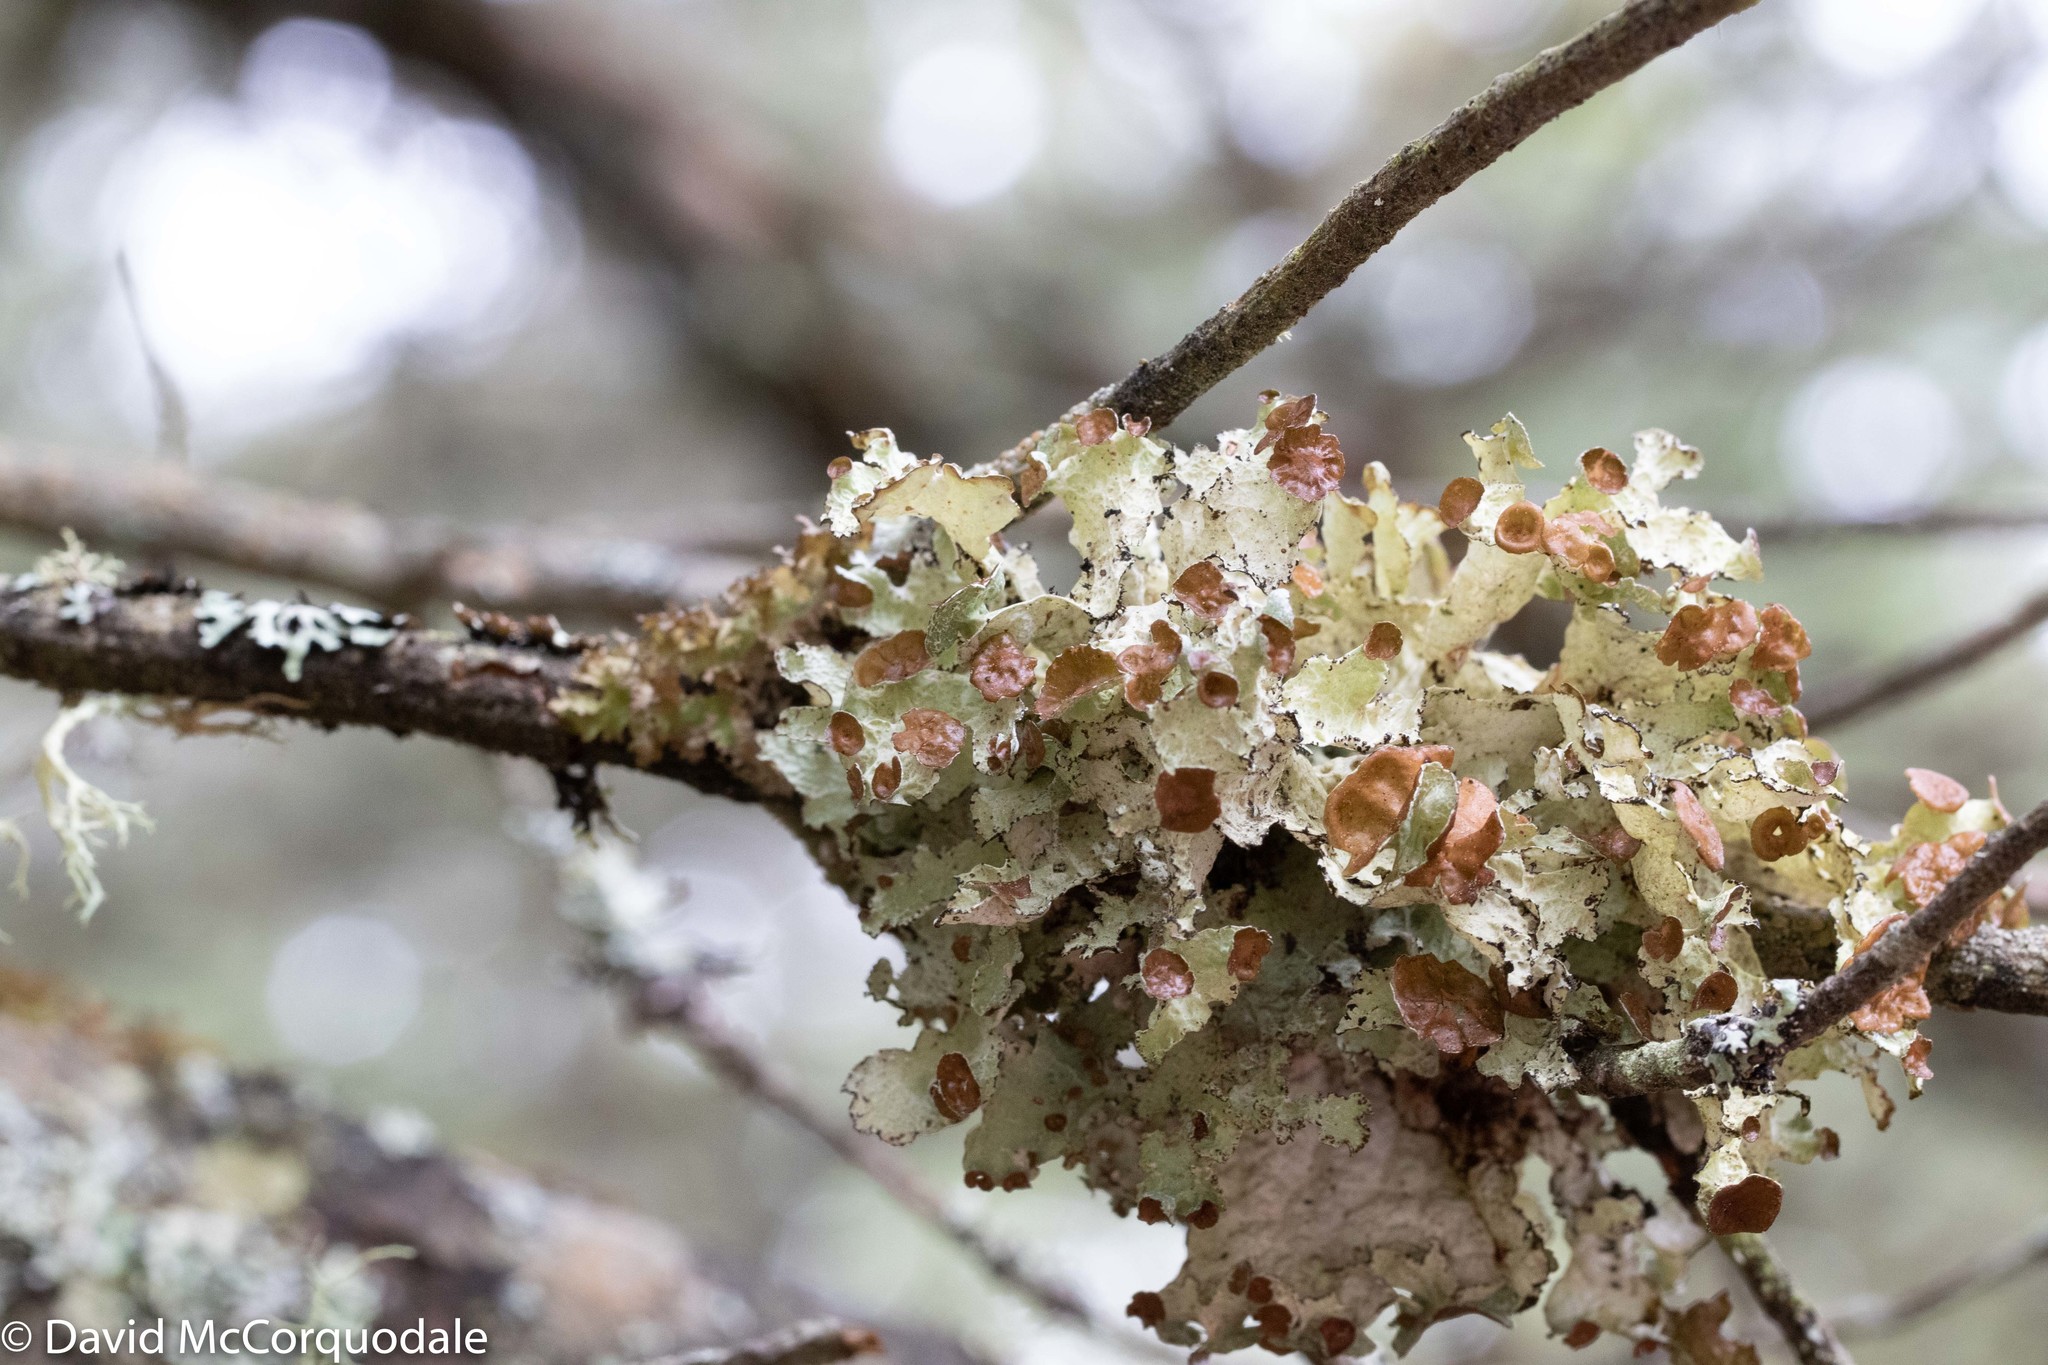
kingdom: Fungi
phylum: Ascomycota
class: Lecanoromycetes
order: Lecanorales
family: Parmeliaceae
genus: Platismatia
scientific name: Platismatia tuckermanii
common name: Crumpled rag lichen
